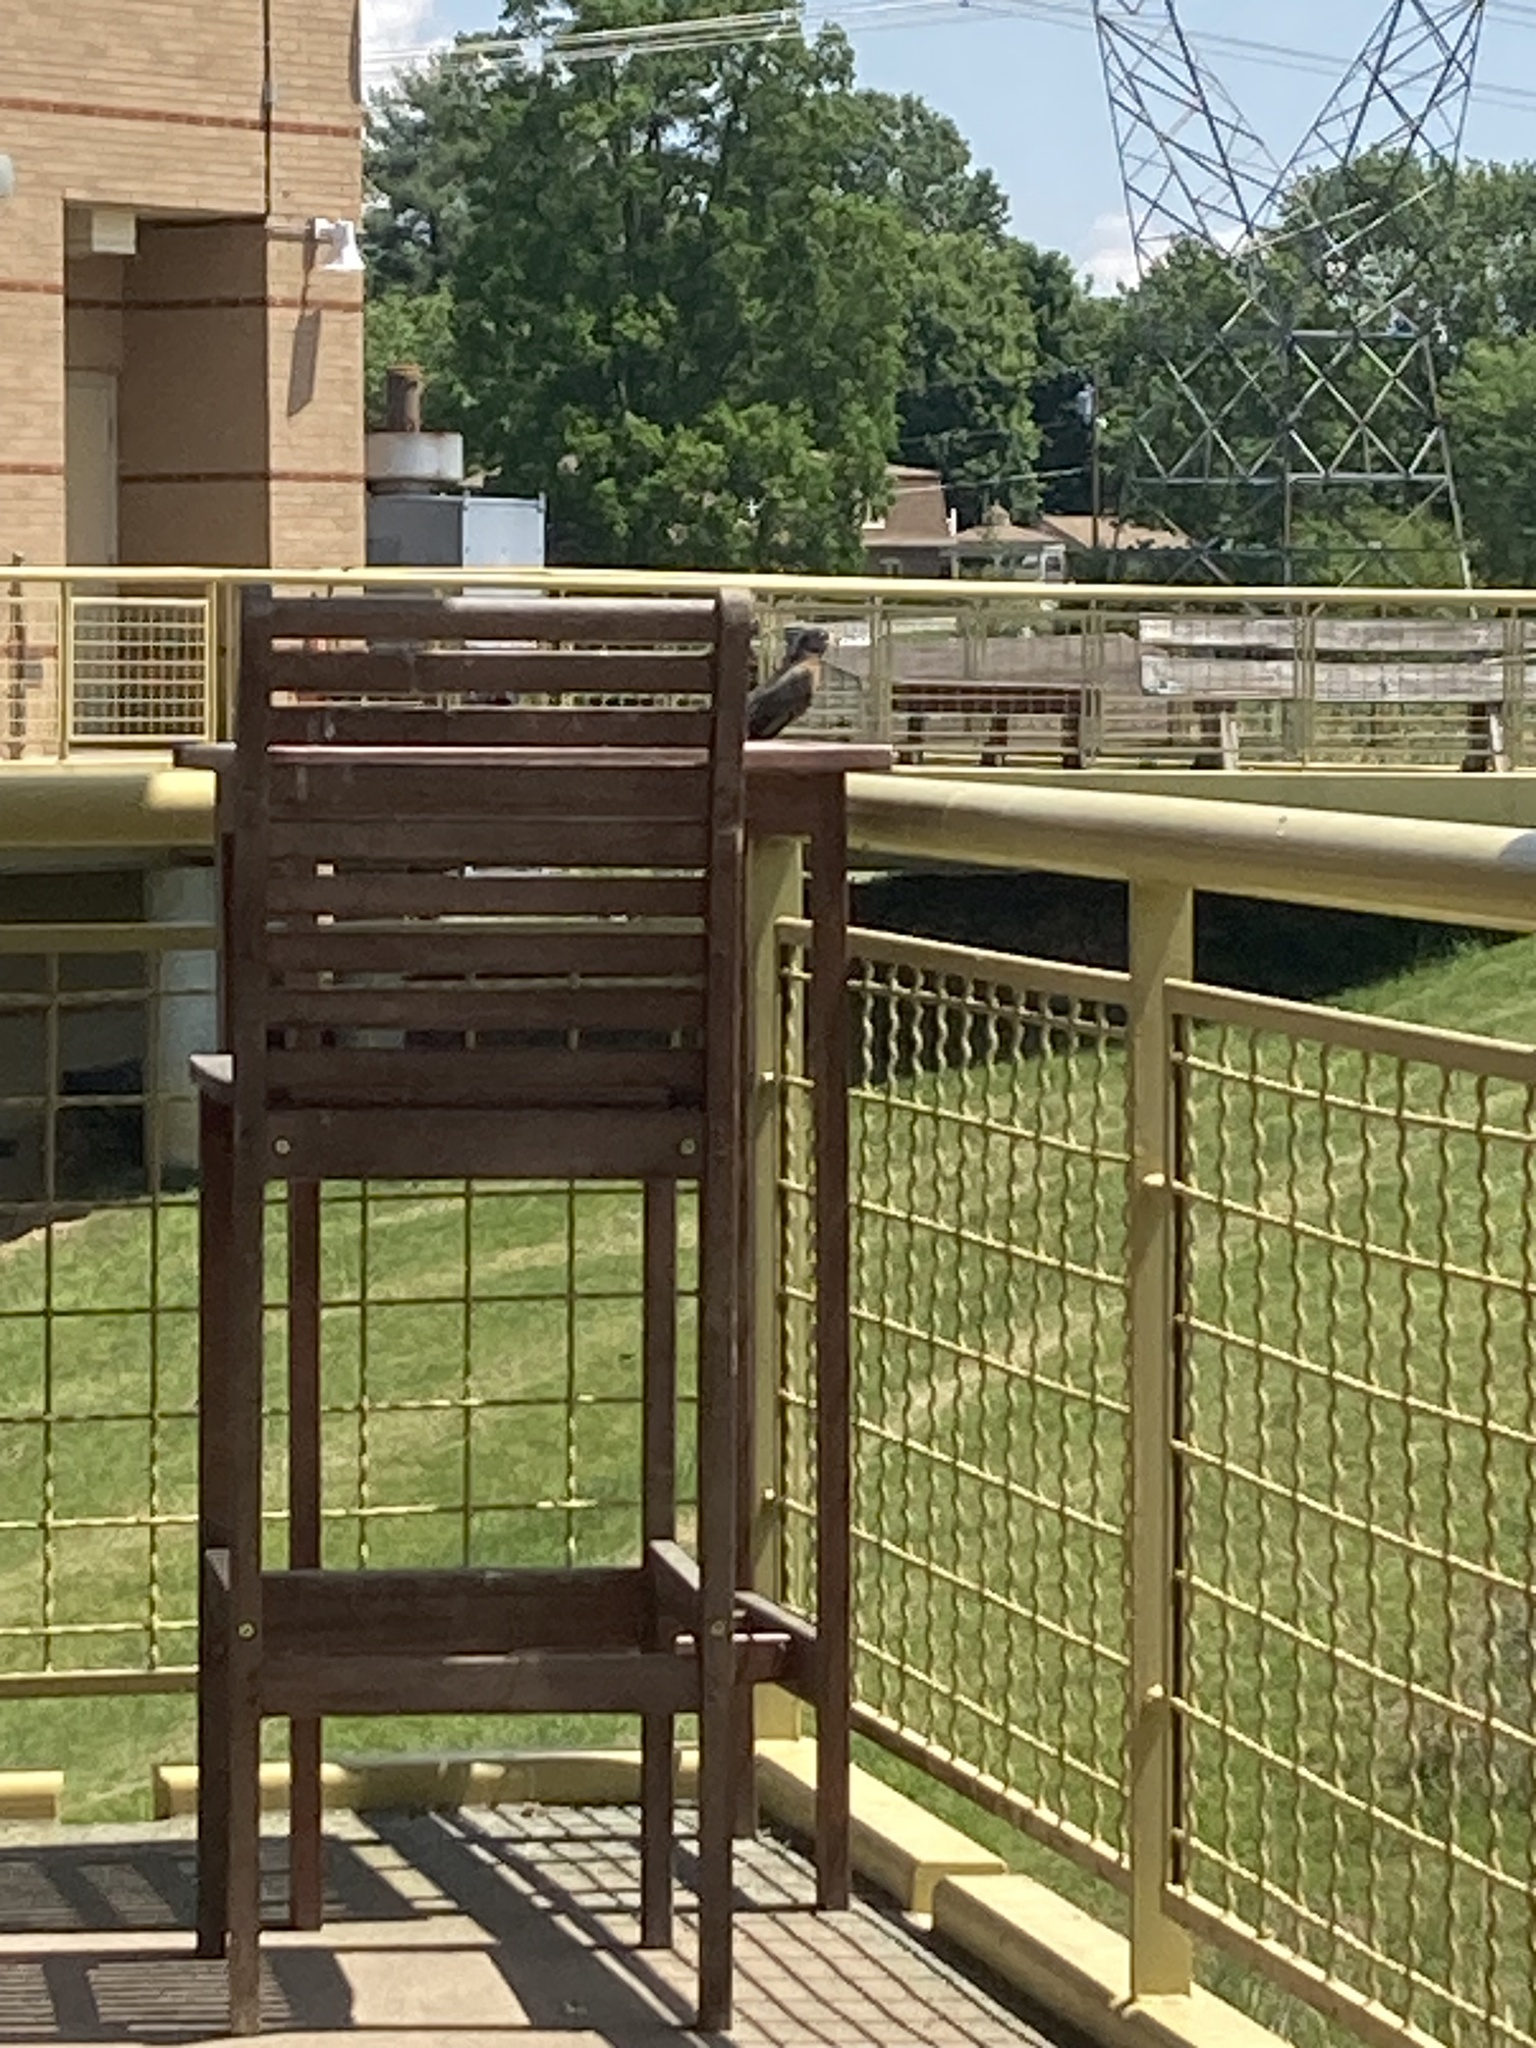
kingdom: Animalia
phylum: Chordata
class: Aves
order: Passeriformes
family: Turdidae
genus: Turdus
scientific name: Turdus migratorius
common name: American robin
